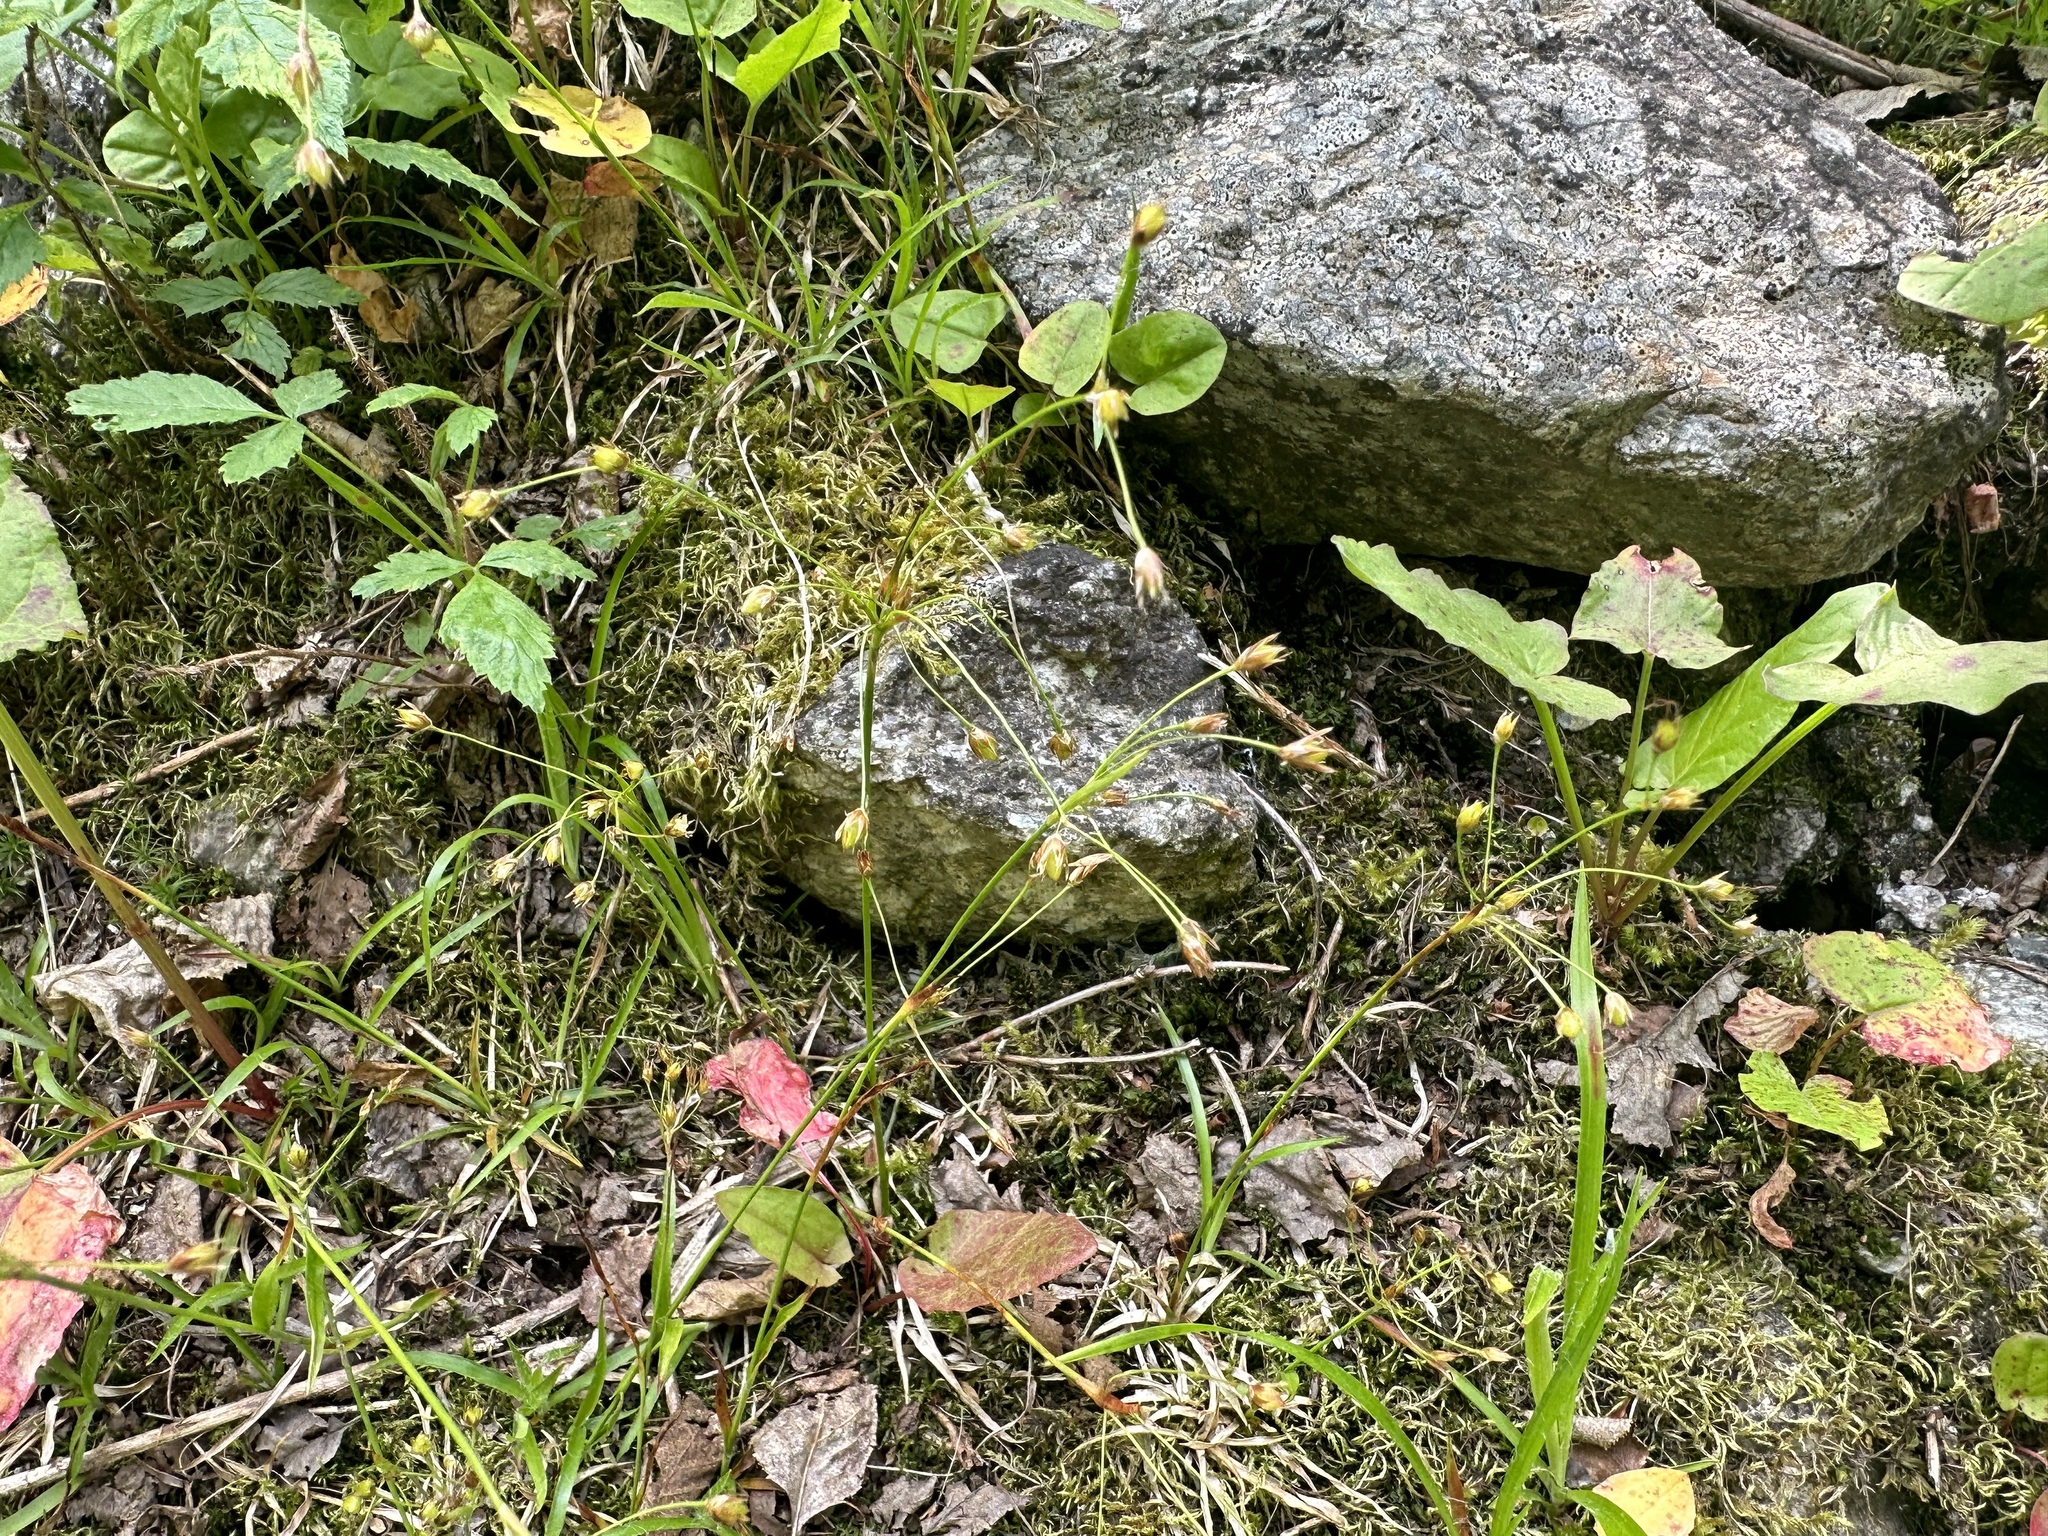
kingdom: Plantae
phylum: Tracheophyta
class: Liliopsida
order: Poales
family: Juncaceae
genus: Luzula
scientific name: Luzula luzulina
